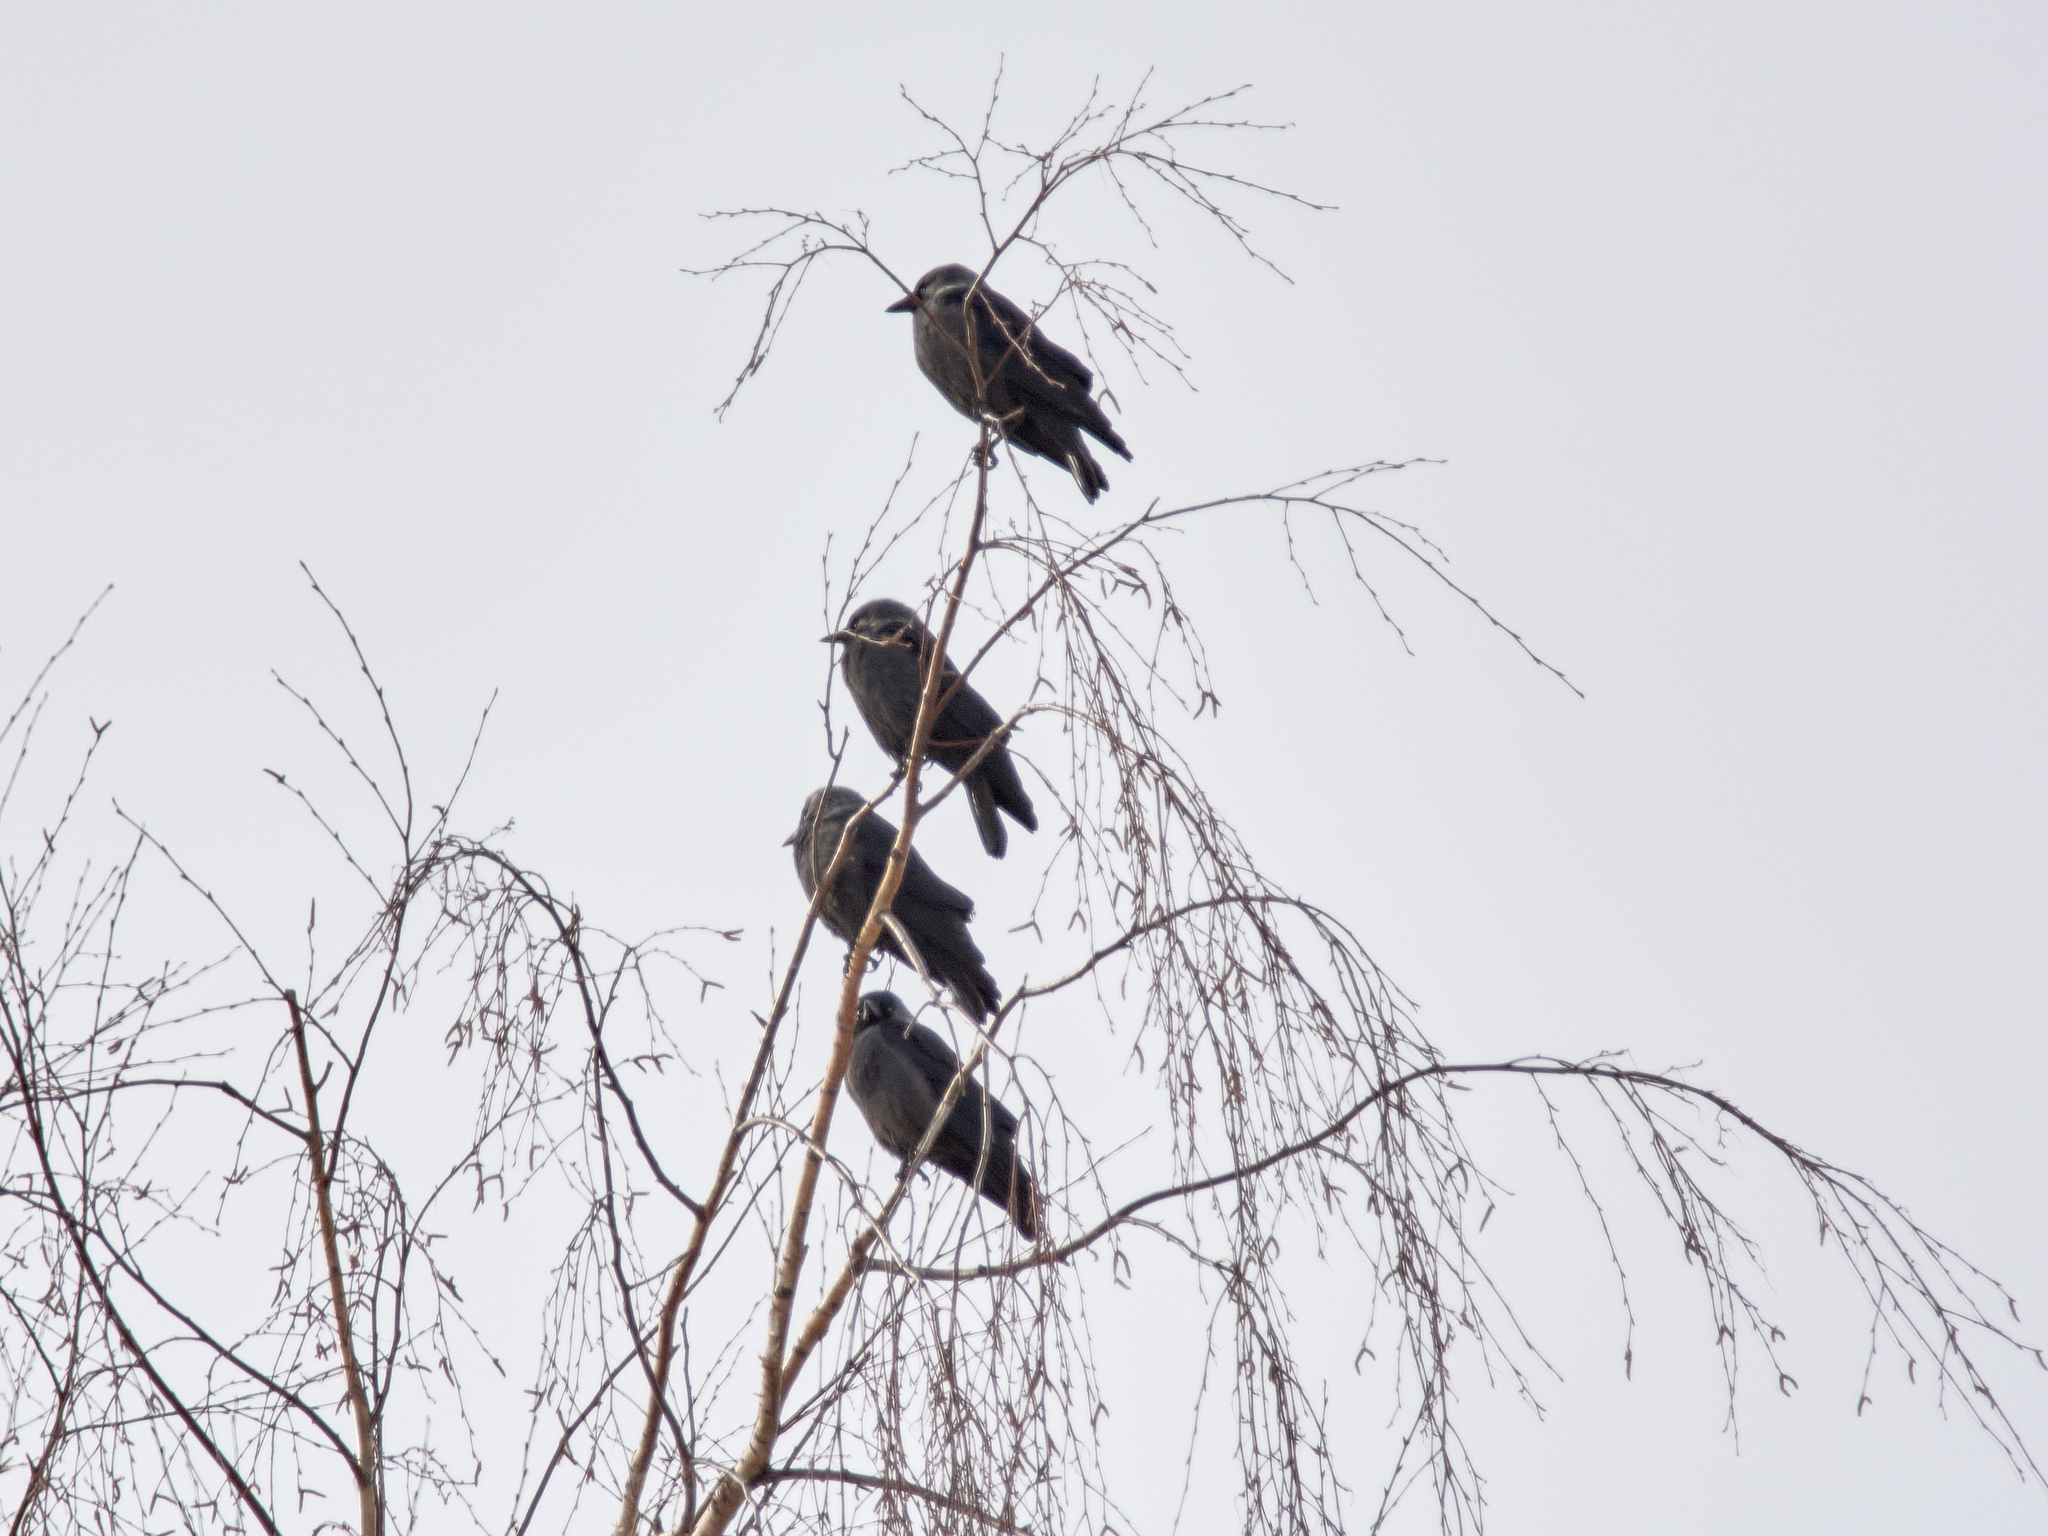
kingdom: Animalia
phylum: Chordata
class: Aves
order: Passeriformes
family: Corvidae
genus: Coloeus
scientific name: Coloeus monedula
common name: Western jackdaw
